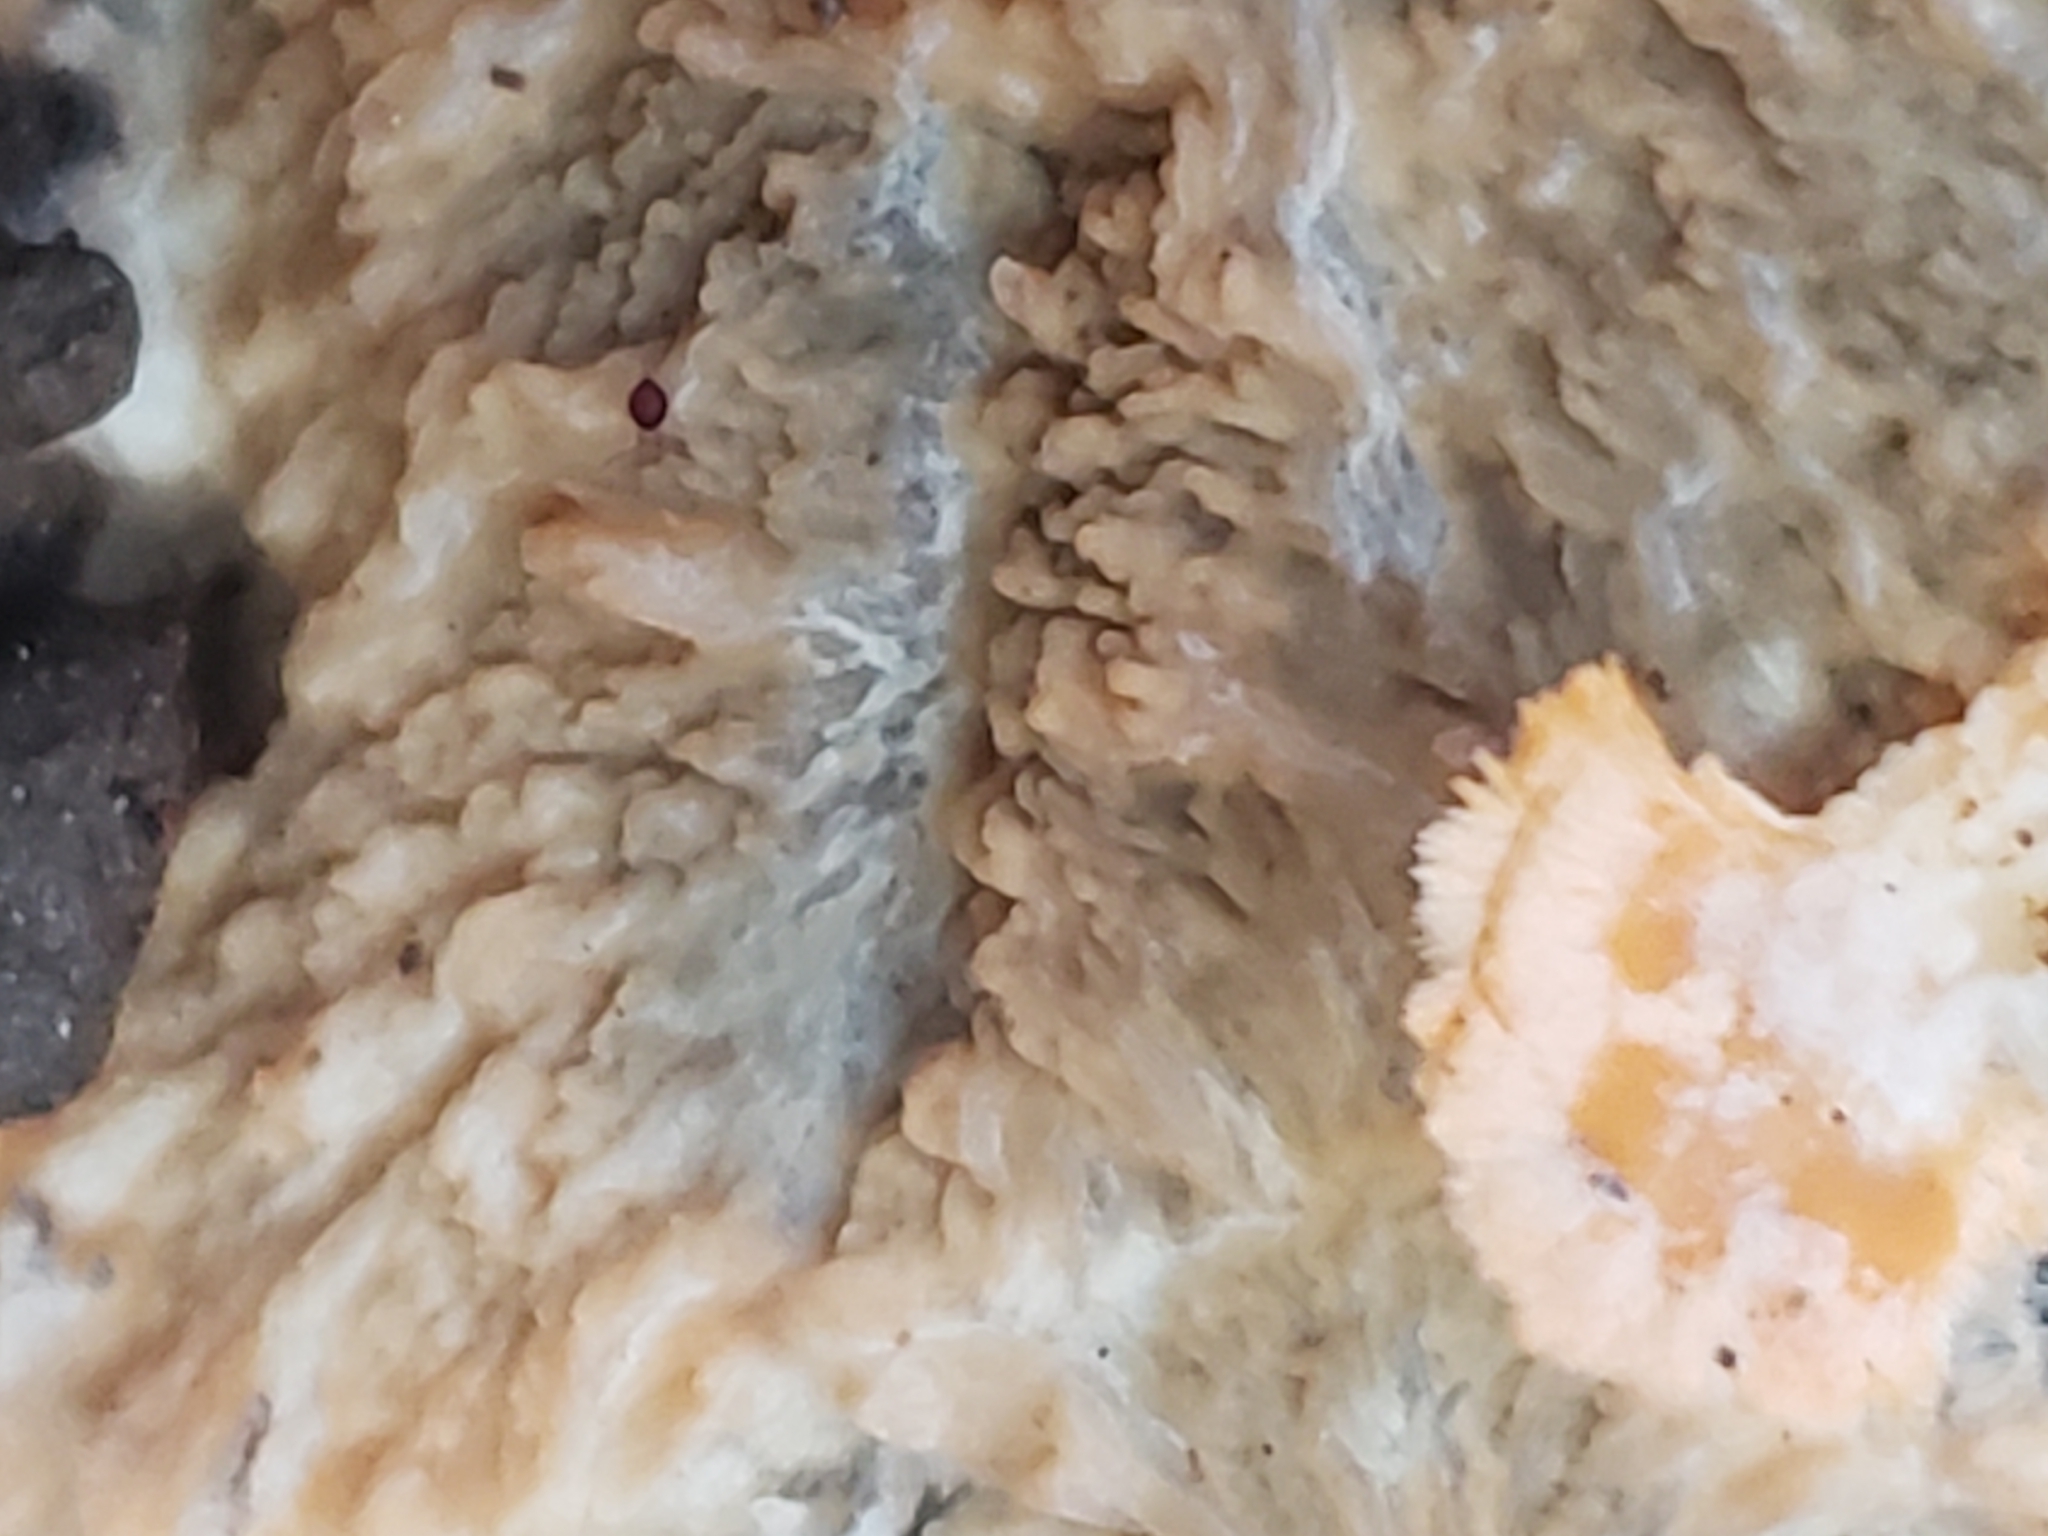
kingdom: Fungi
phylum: Basidiomycota
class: Agaricomycetes
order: Polyporales
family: Meruliaceae
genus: Phlebia
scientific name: Phlebia radiata
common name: Wrinkled crust
